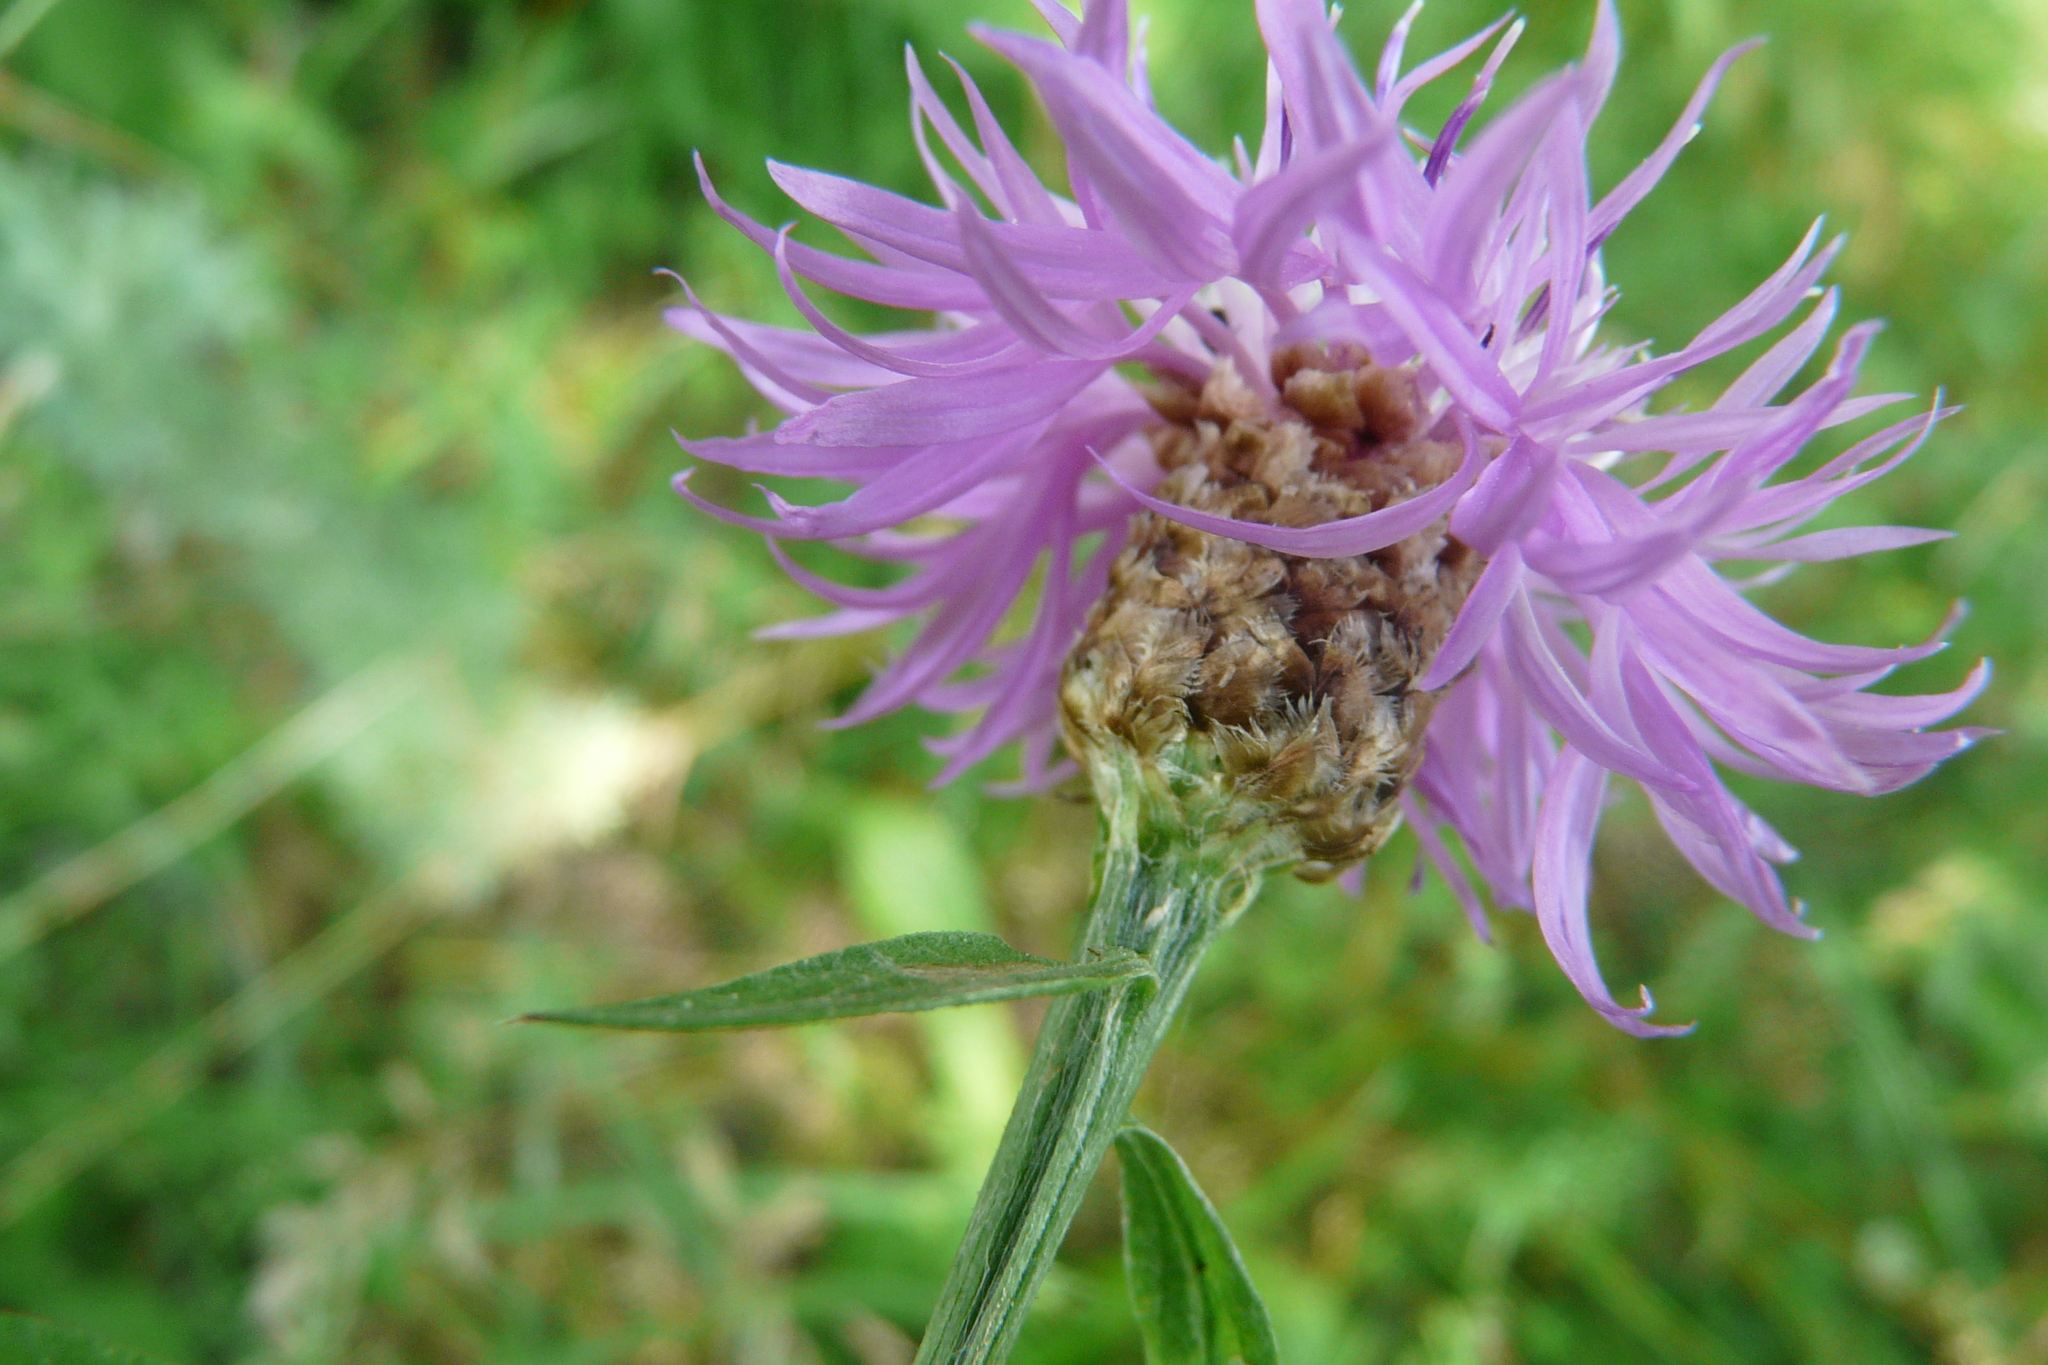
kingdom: Plantae
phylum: Tracheophyta
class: Magnoliopsida
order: Asterales
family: Asteraceae
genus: Centaurea
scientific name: Centaurea jacea
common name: Brown knapweed
